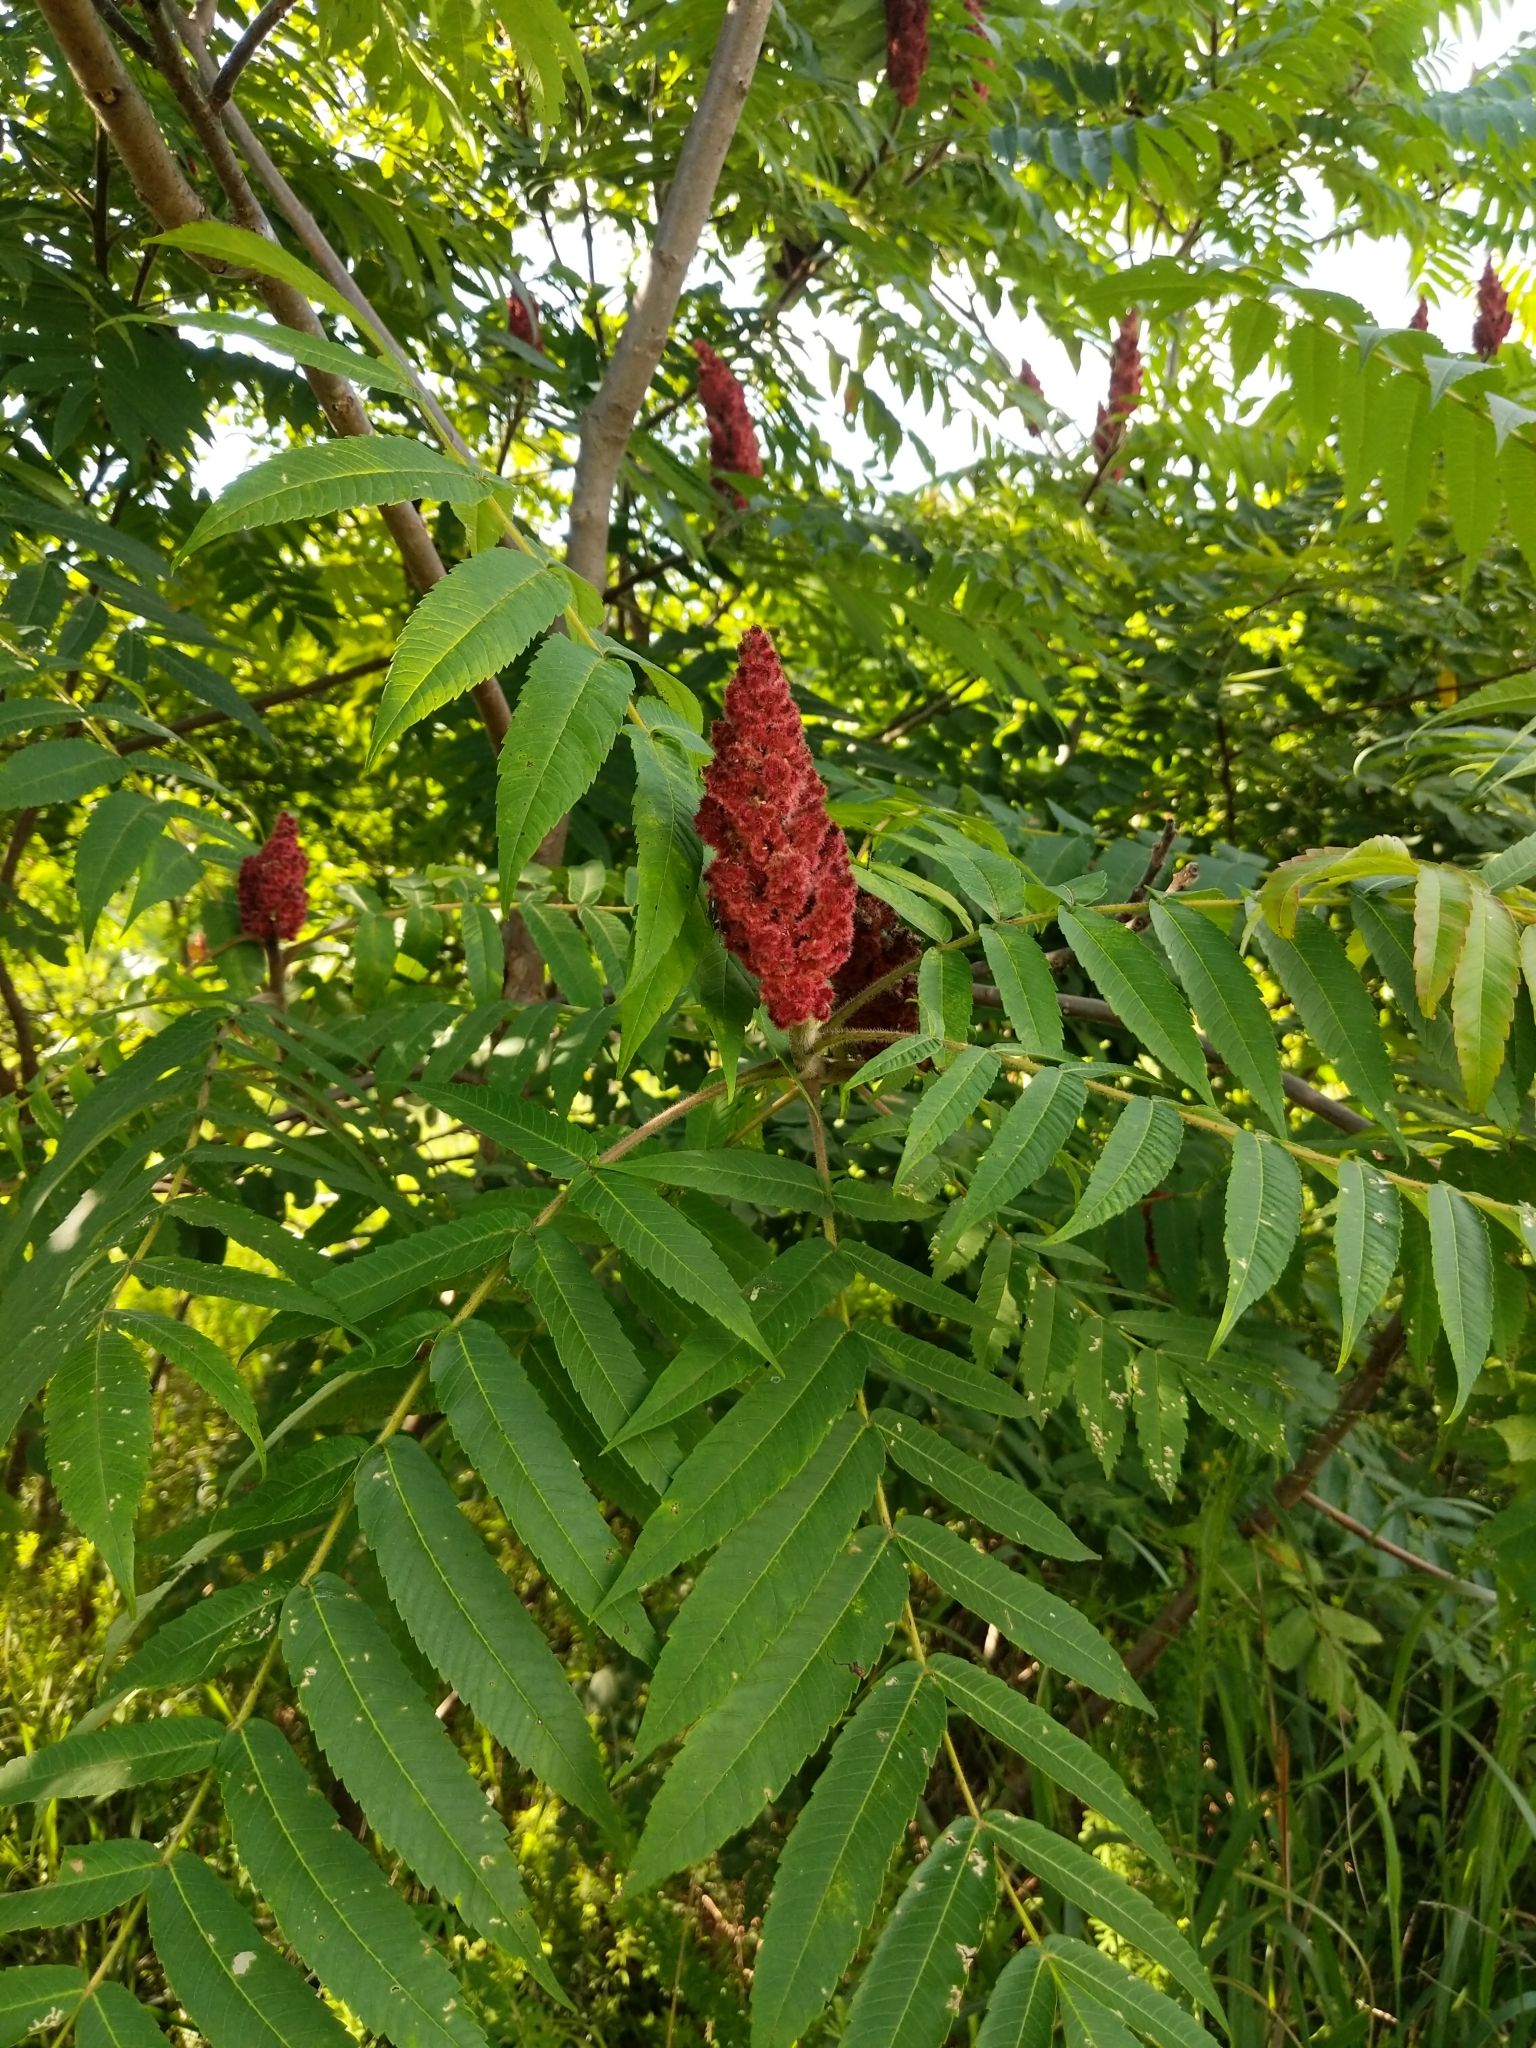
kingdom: Plantae
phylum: Tracheophyta
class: Magnoliopsida
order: Sapindales
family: Anacardiaceae
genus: Rhus
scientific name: Rhus typhina
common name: Staghorn sumac
